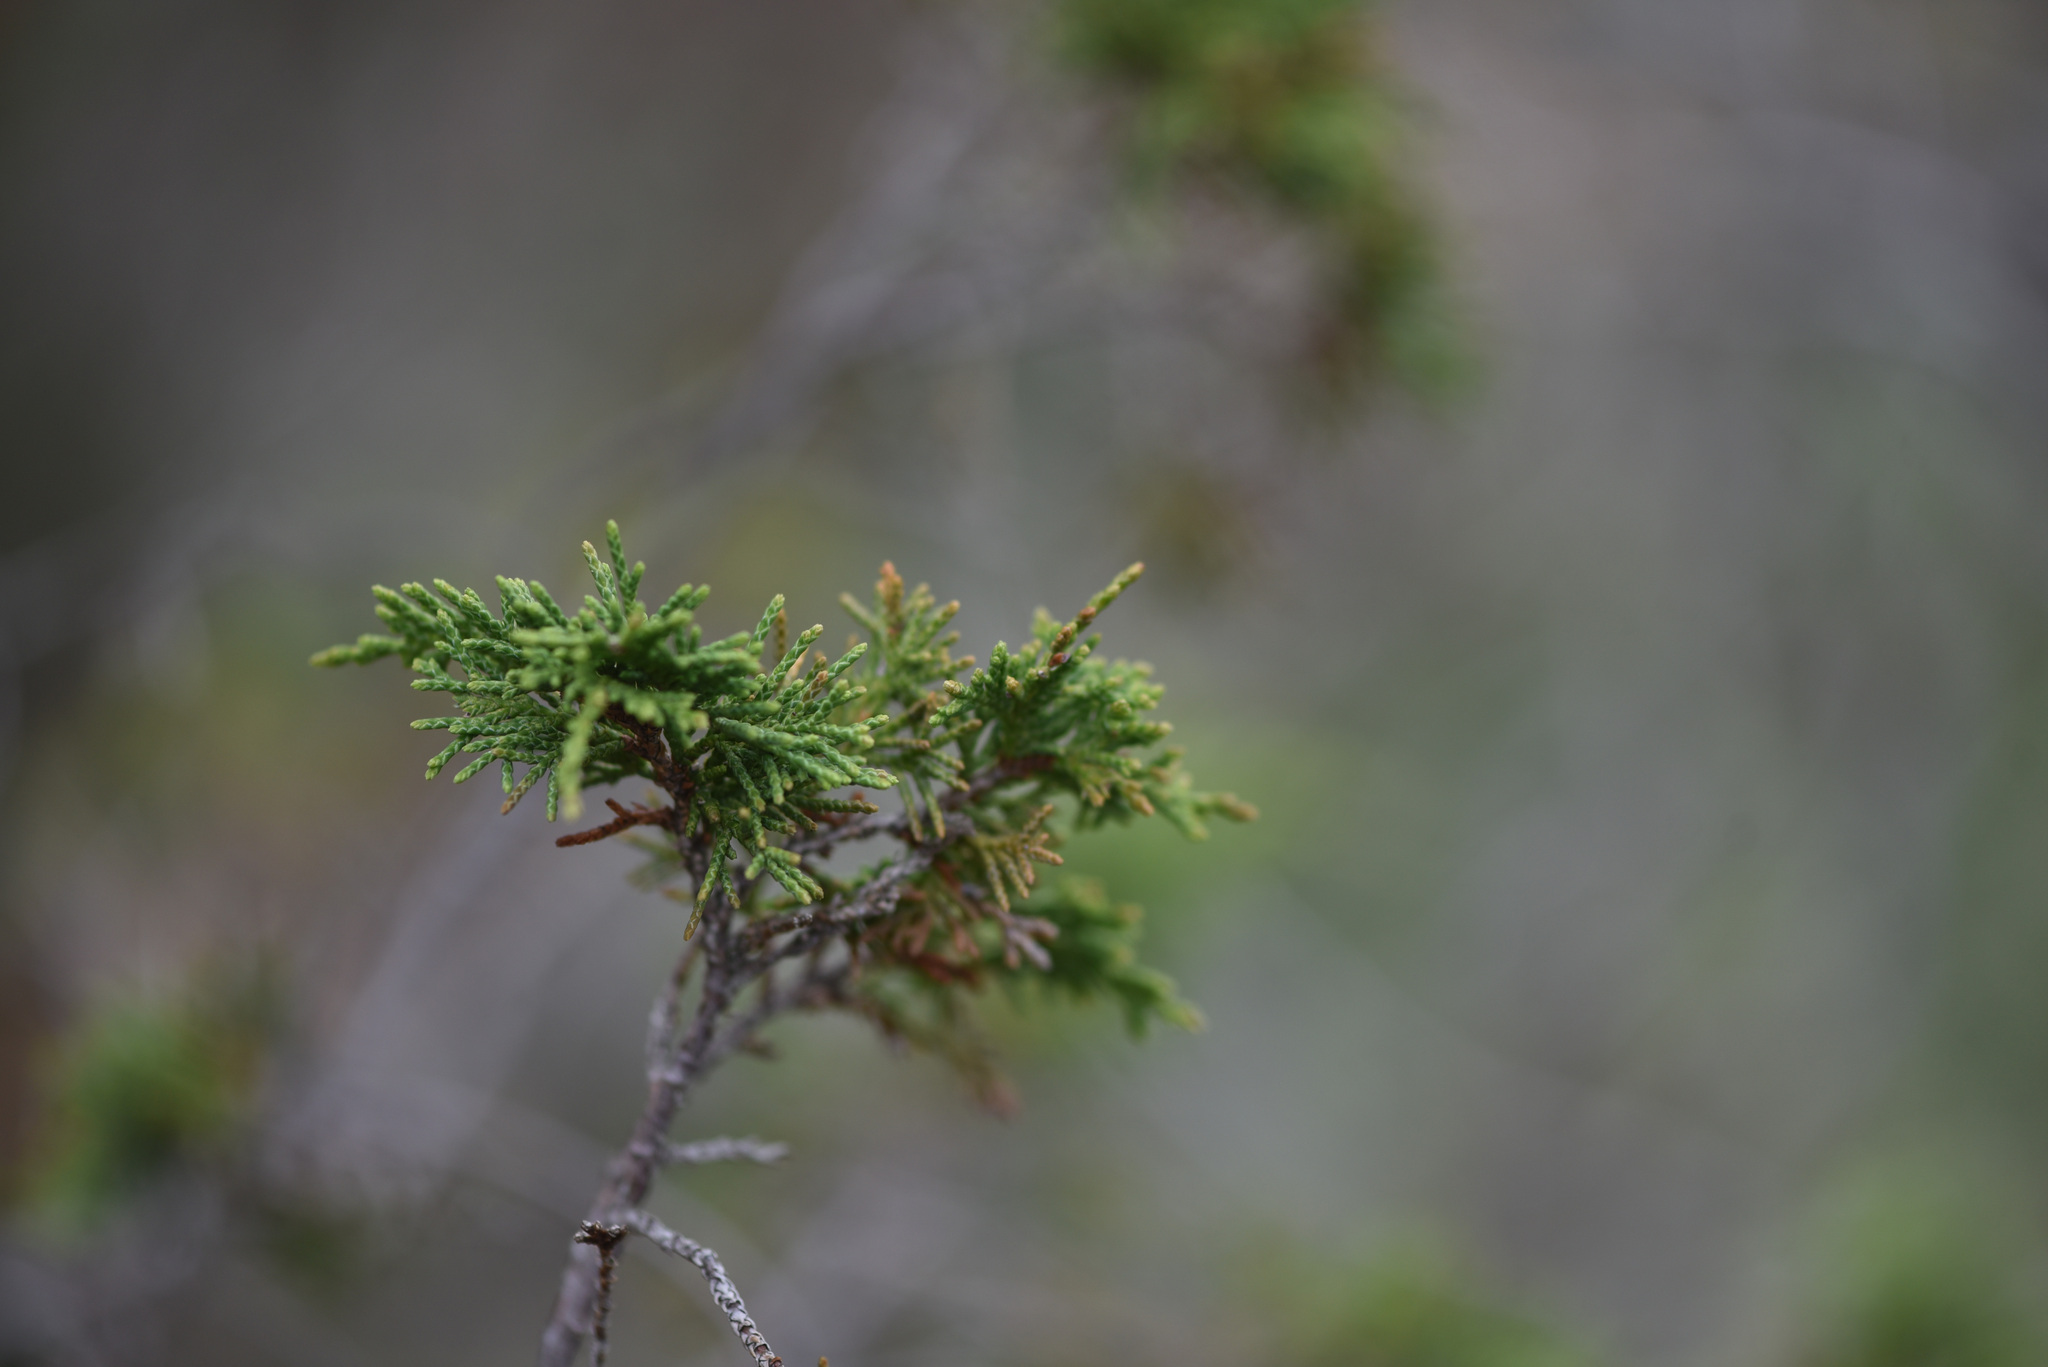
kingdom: Plantae
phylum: Tracheophyta
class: Pinopsida
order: Pinales
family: Cupressaceae
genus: Juniperus
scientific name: Juniperus scopulorum
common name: Rocky mountain juniper
